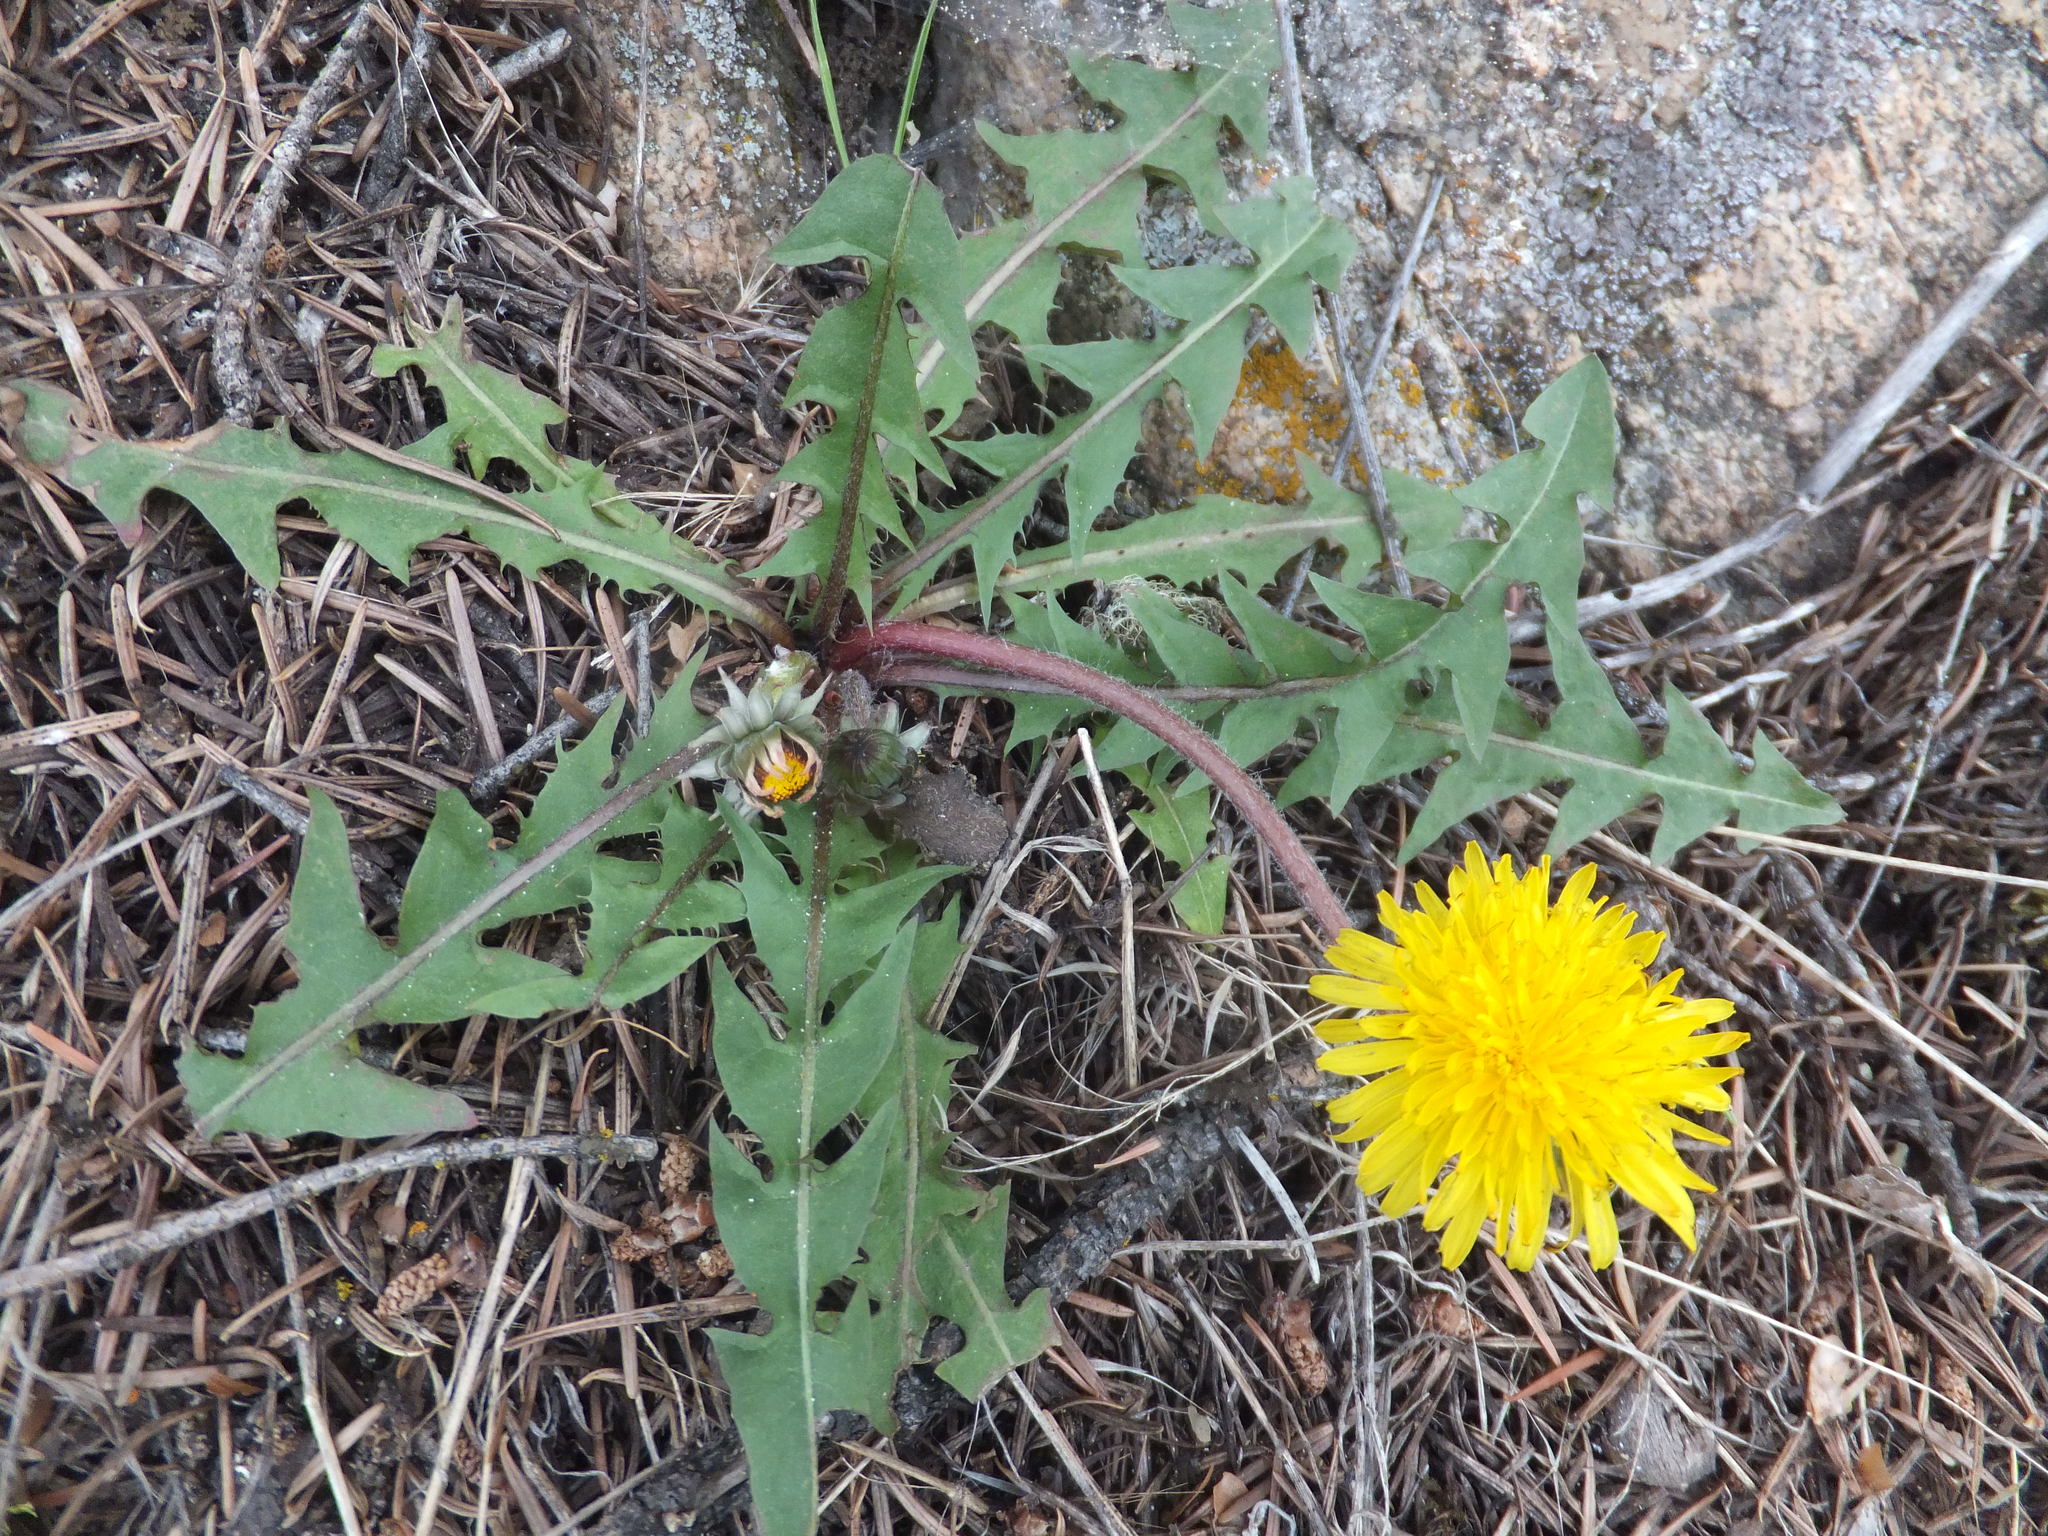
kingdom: Plantae
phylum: Tracheophyta
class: Magnoliopsida
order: Asterales
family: Asteraceae
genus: Taraxacum
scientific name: Taraxacum officinale
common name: Common dandelion
